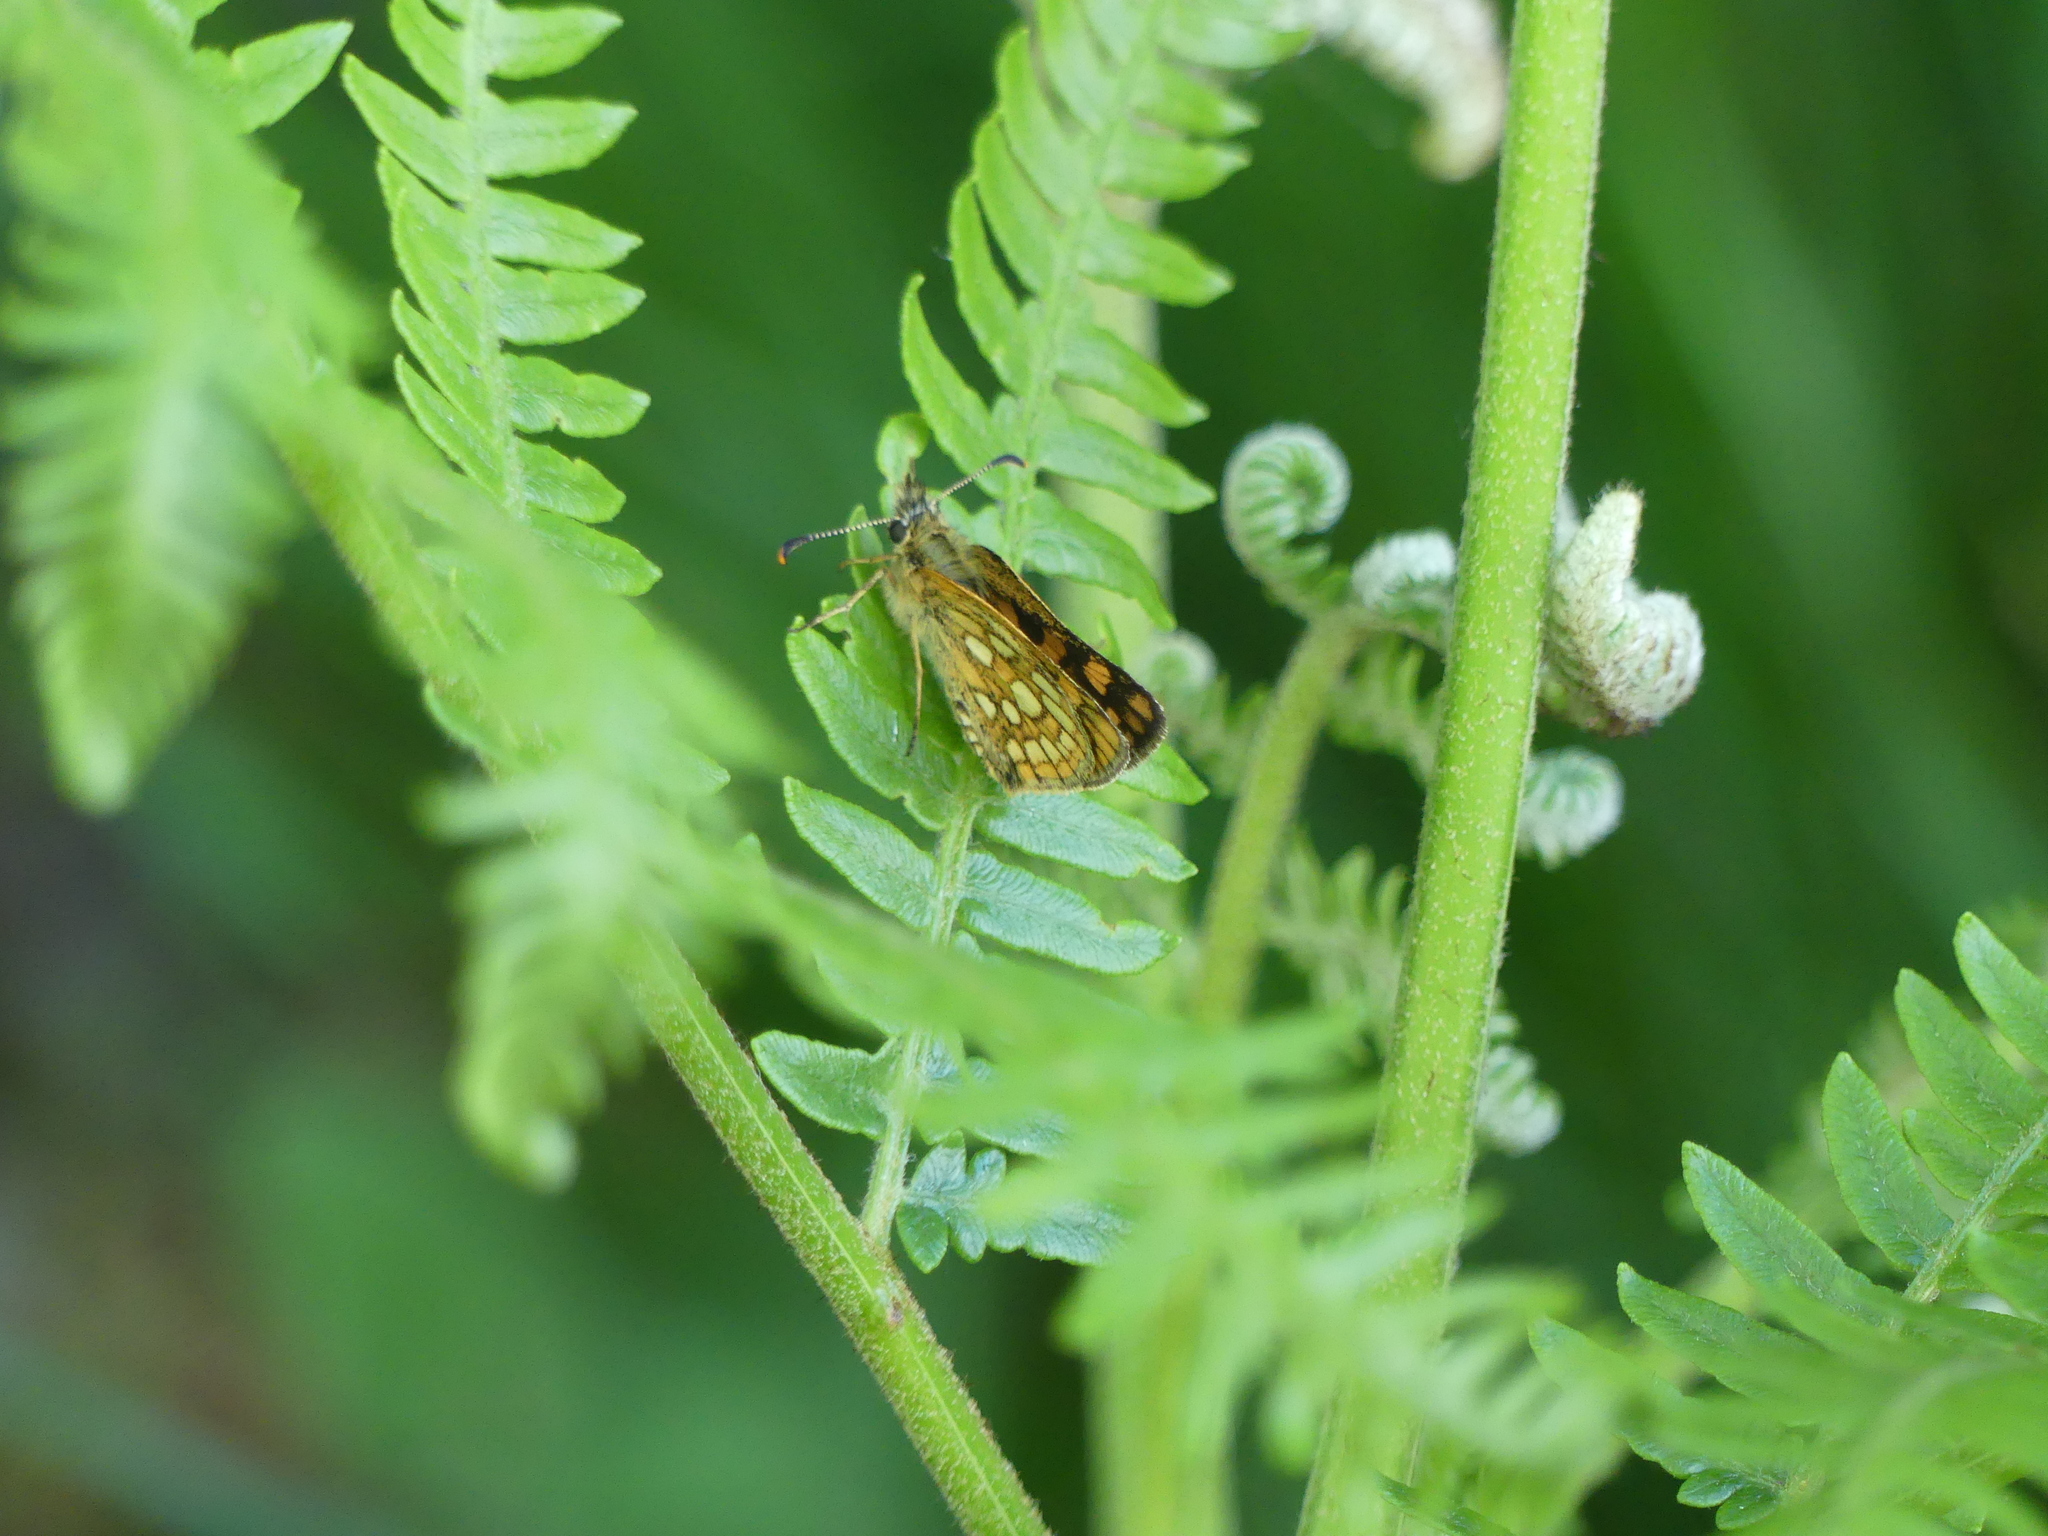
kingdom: Animalia
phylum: Arthropoda
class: Insecta
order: Lepidoptera
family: Hesperiidae
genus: Carterocephalus
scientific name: Carterocephalus palaemon
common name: Chequered skipper
